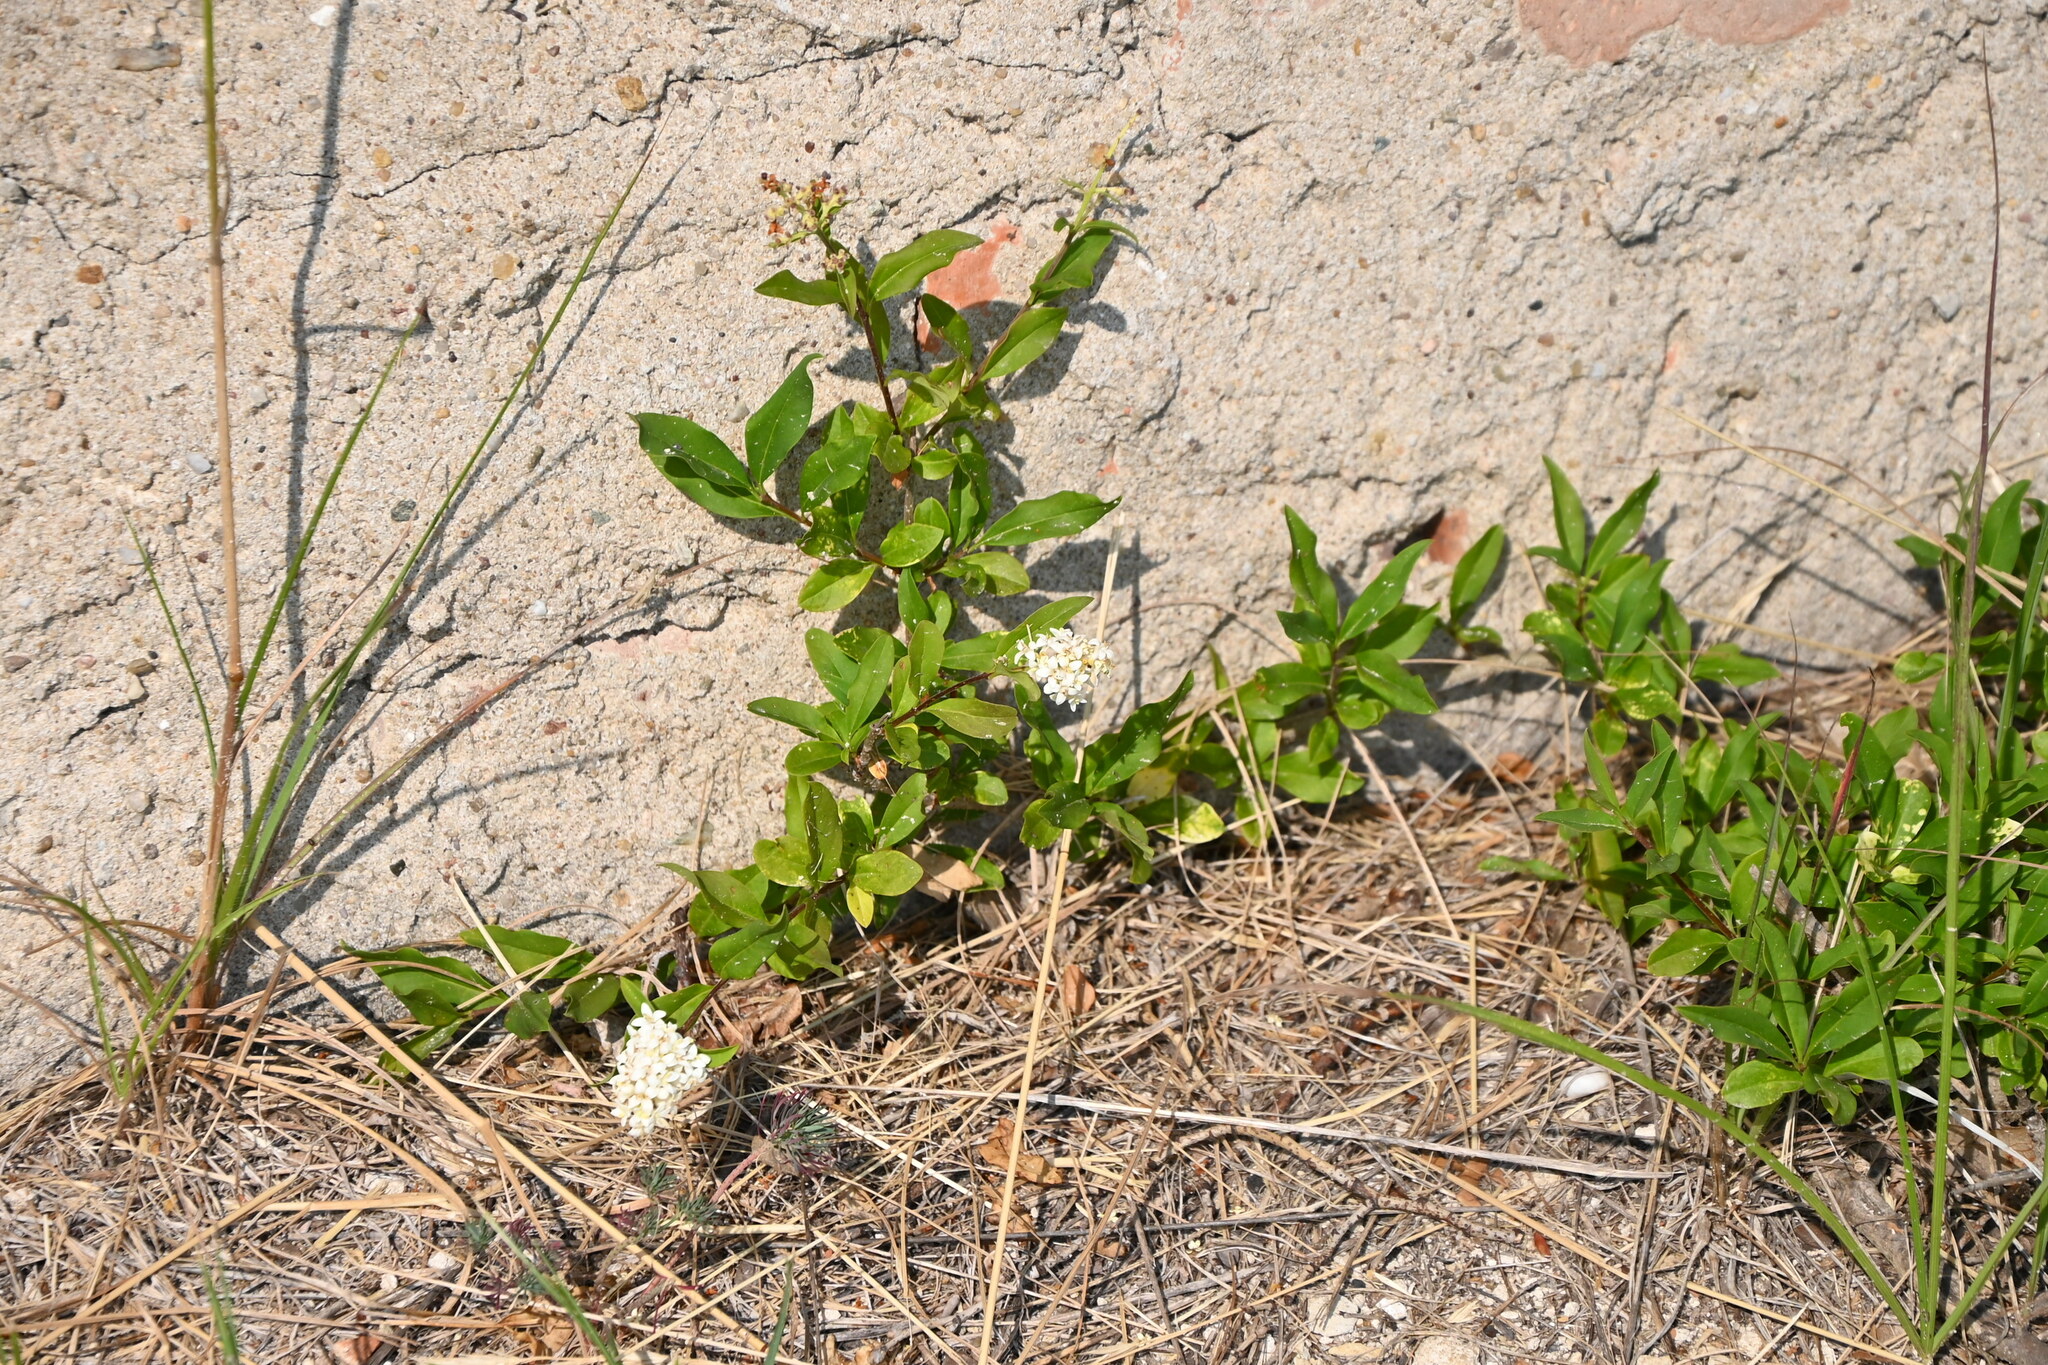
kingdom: Plantae
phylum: Tracheophyta
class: Magnoliopsida
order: Lamiales
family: Oleaceae
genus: Ligustrum
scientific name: Ligustrum vulgare
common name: Wild privet
